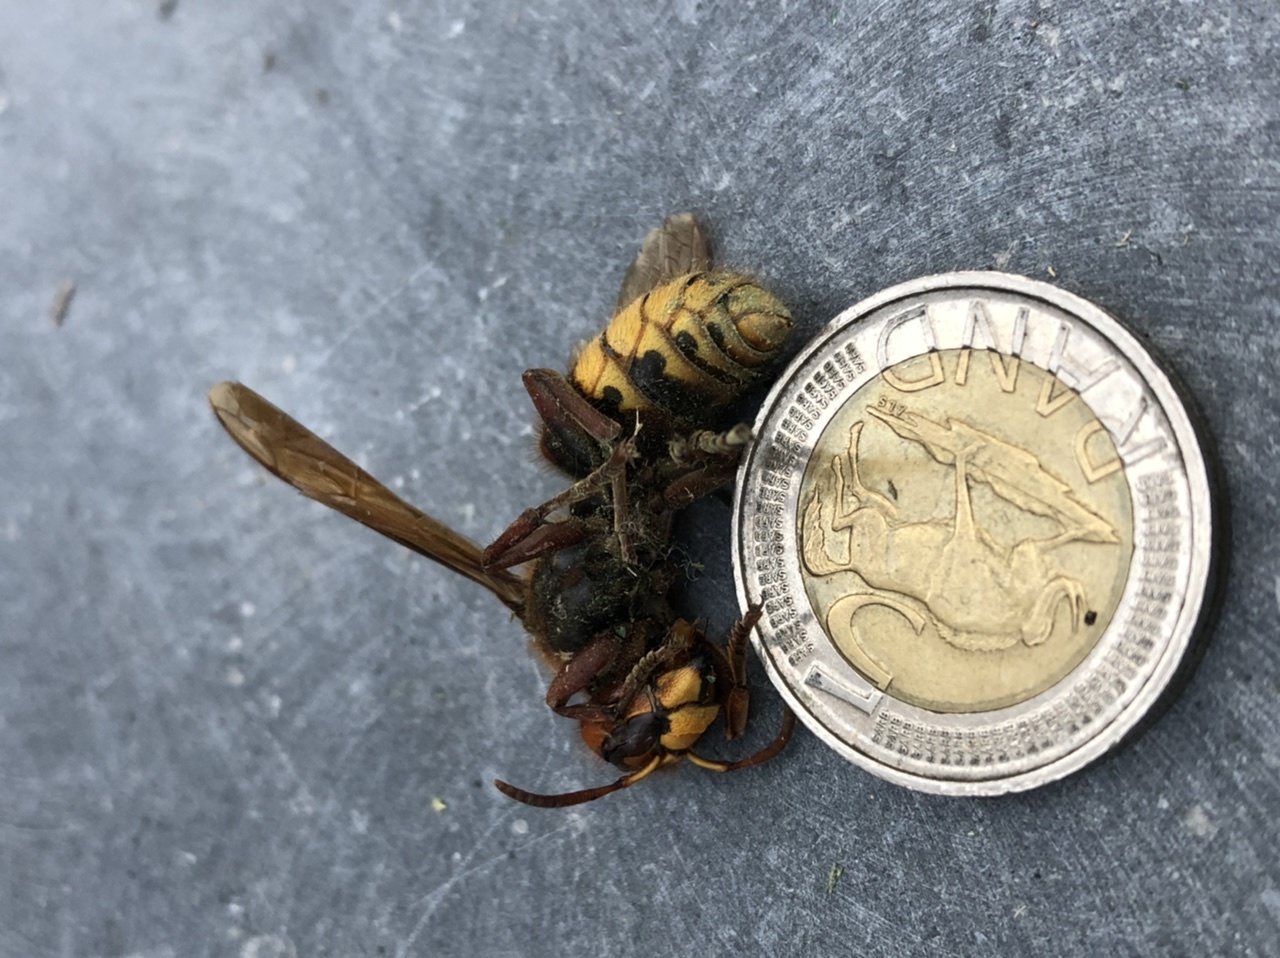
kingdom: Animalia
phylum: Arthropoda
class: Insecta
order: Hymenoptera
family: Vespidae
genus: Vespa
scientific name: Vespa crabro
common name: Hornet
